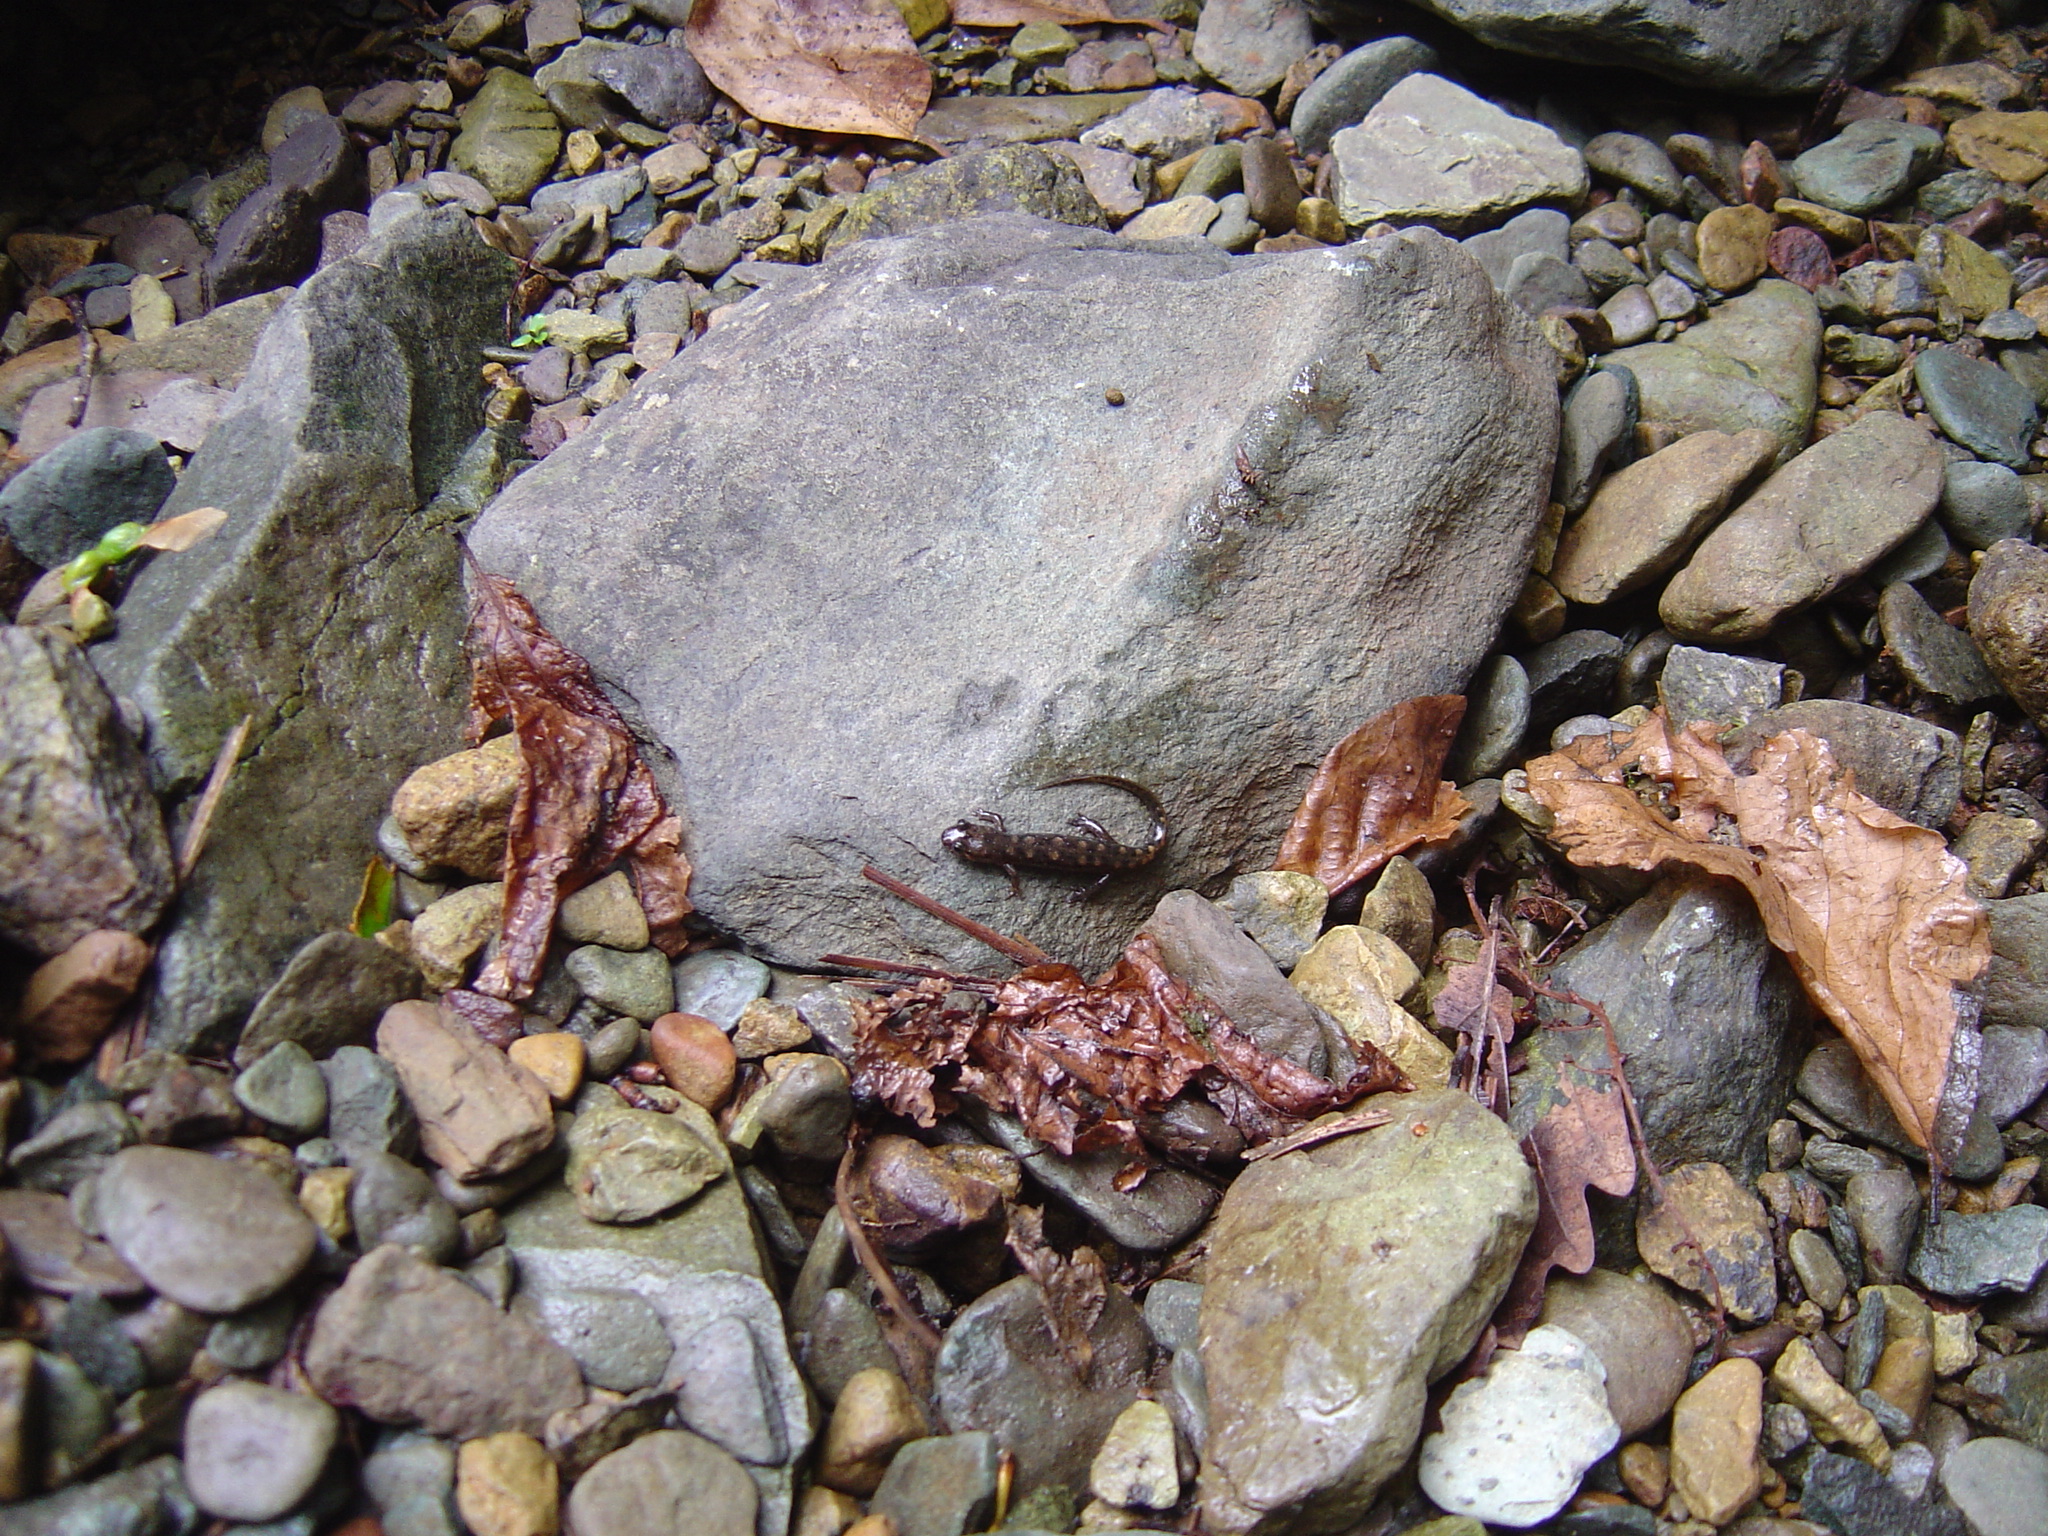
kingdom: Animalia
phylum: Chordata
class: Amphibia
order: Caudata
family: Plethodontidae
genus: Desmognathus
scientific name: Desmognathus monticola
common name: Seal salamander
